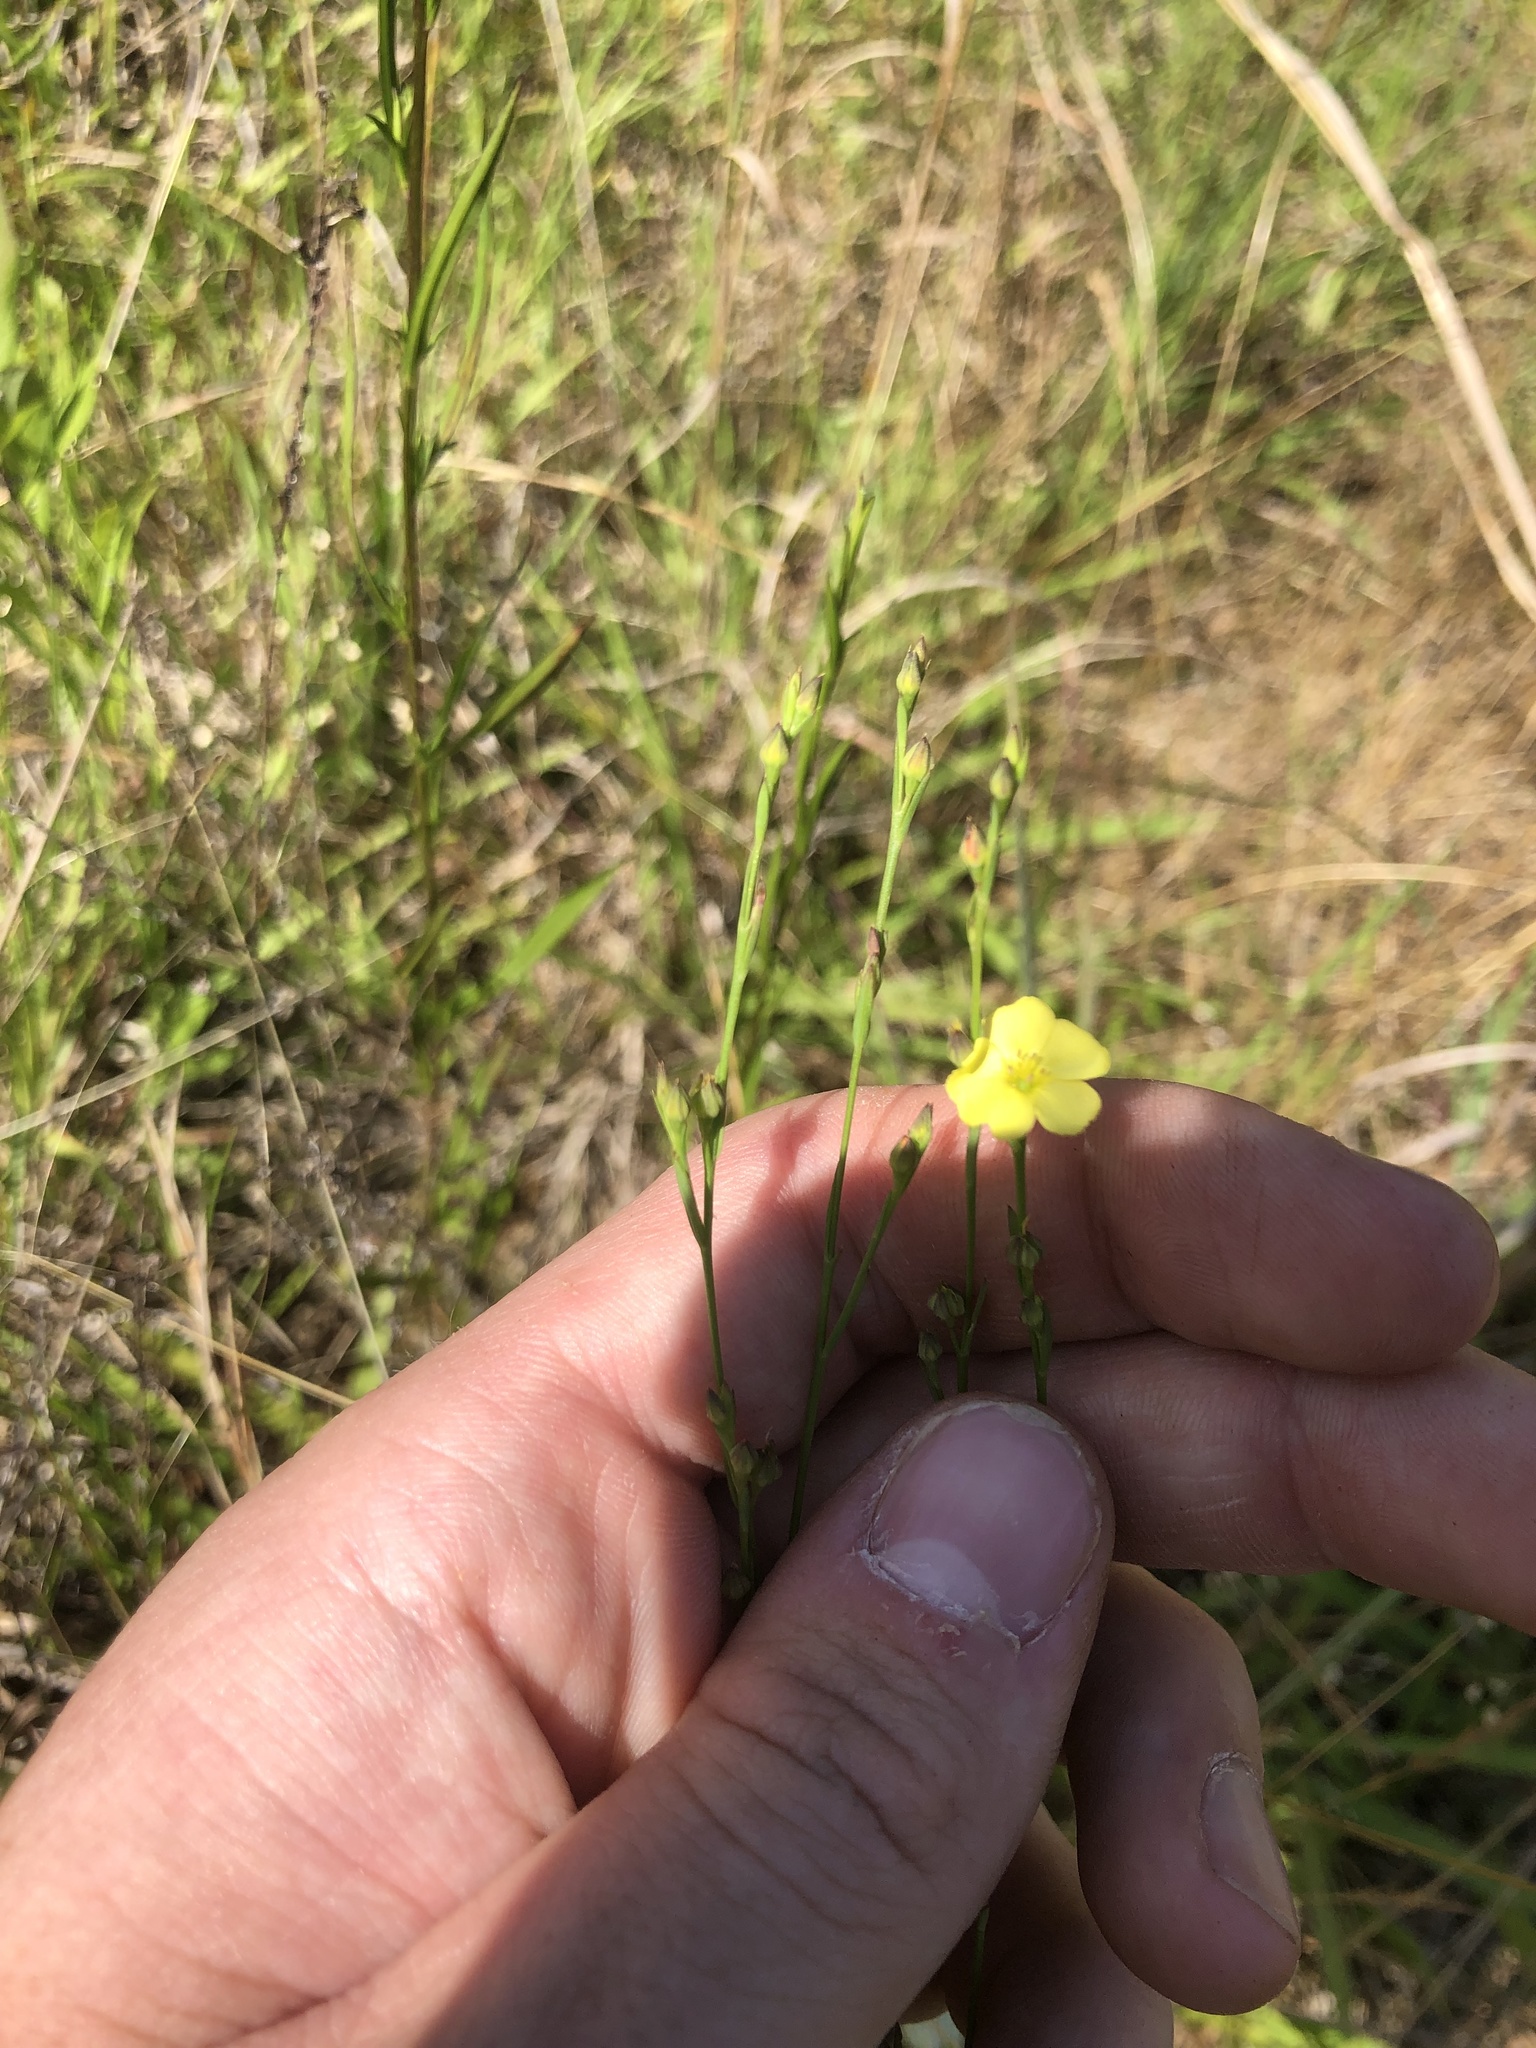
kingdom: Plantae
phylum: Tracheophyta
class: Magnoliopsida
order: Malpighiales
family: Linaceae
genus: Linum
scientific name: Linum medium
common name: Stiff yellow flax
